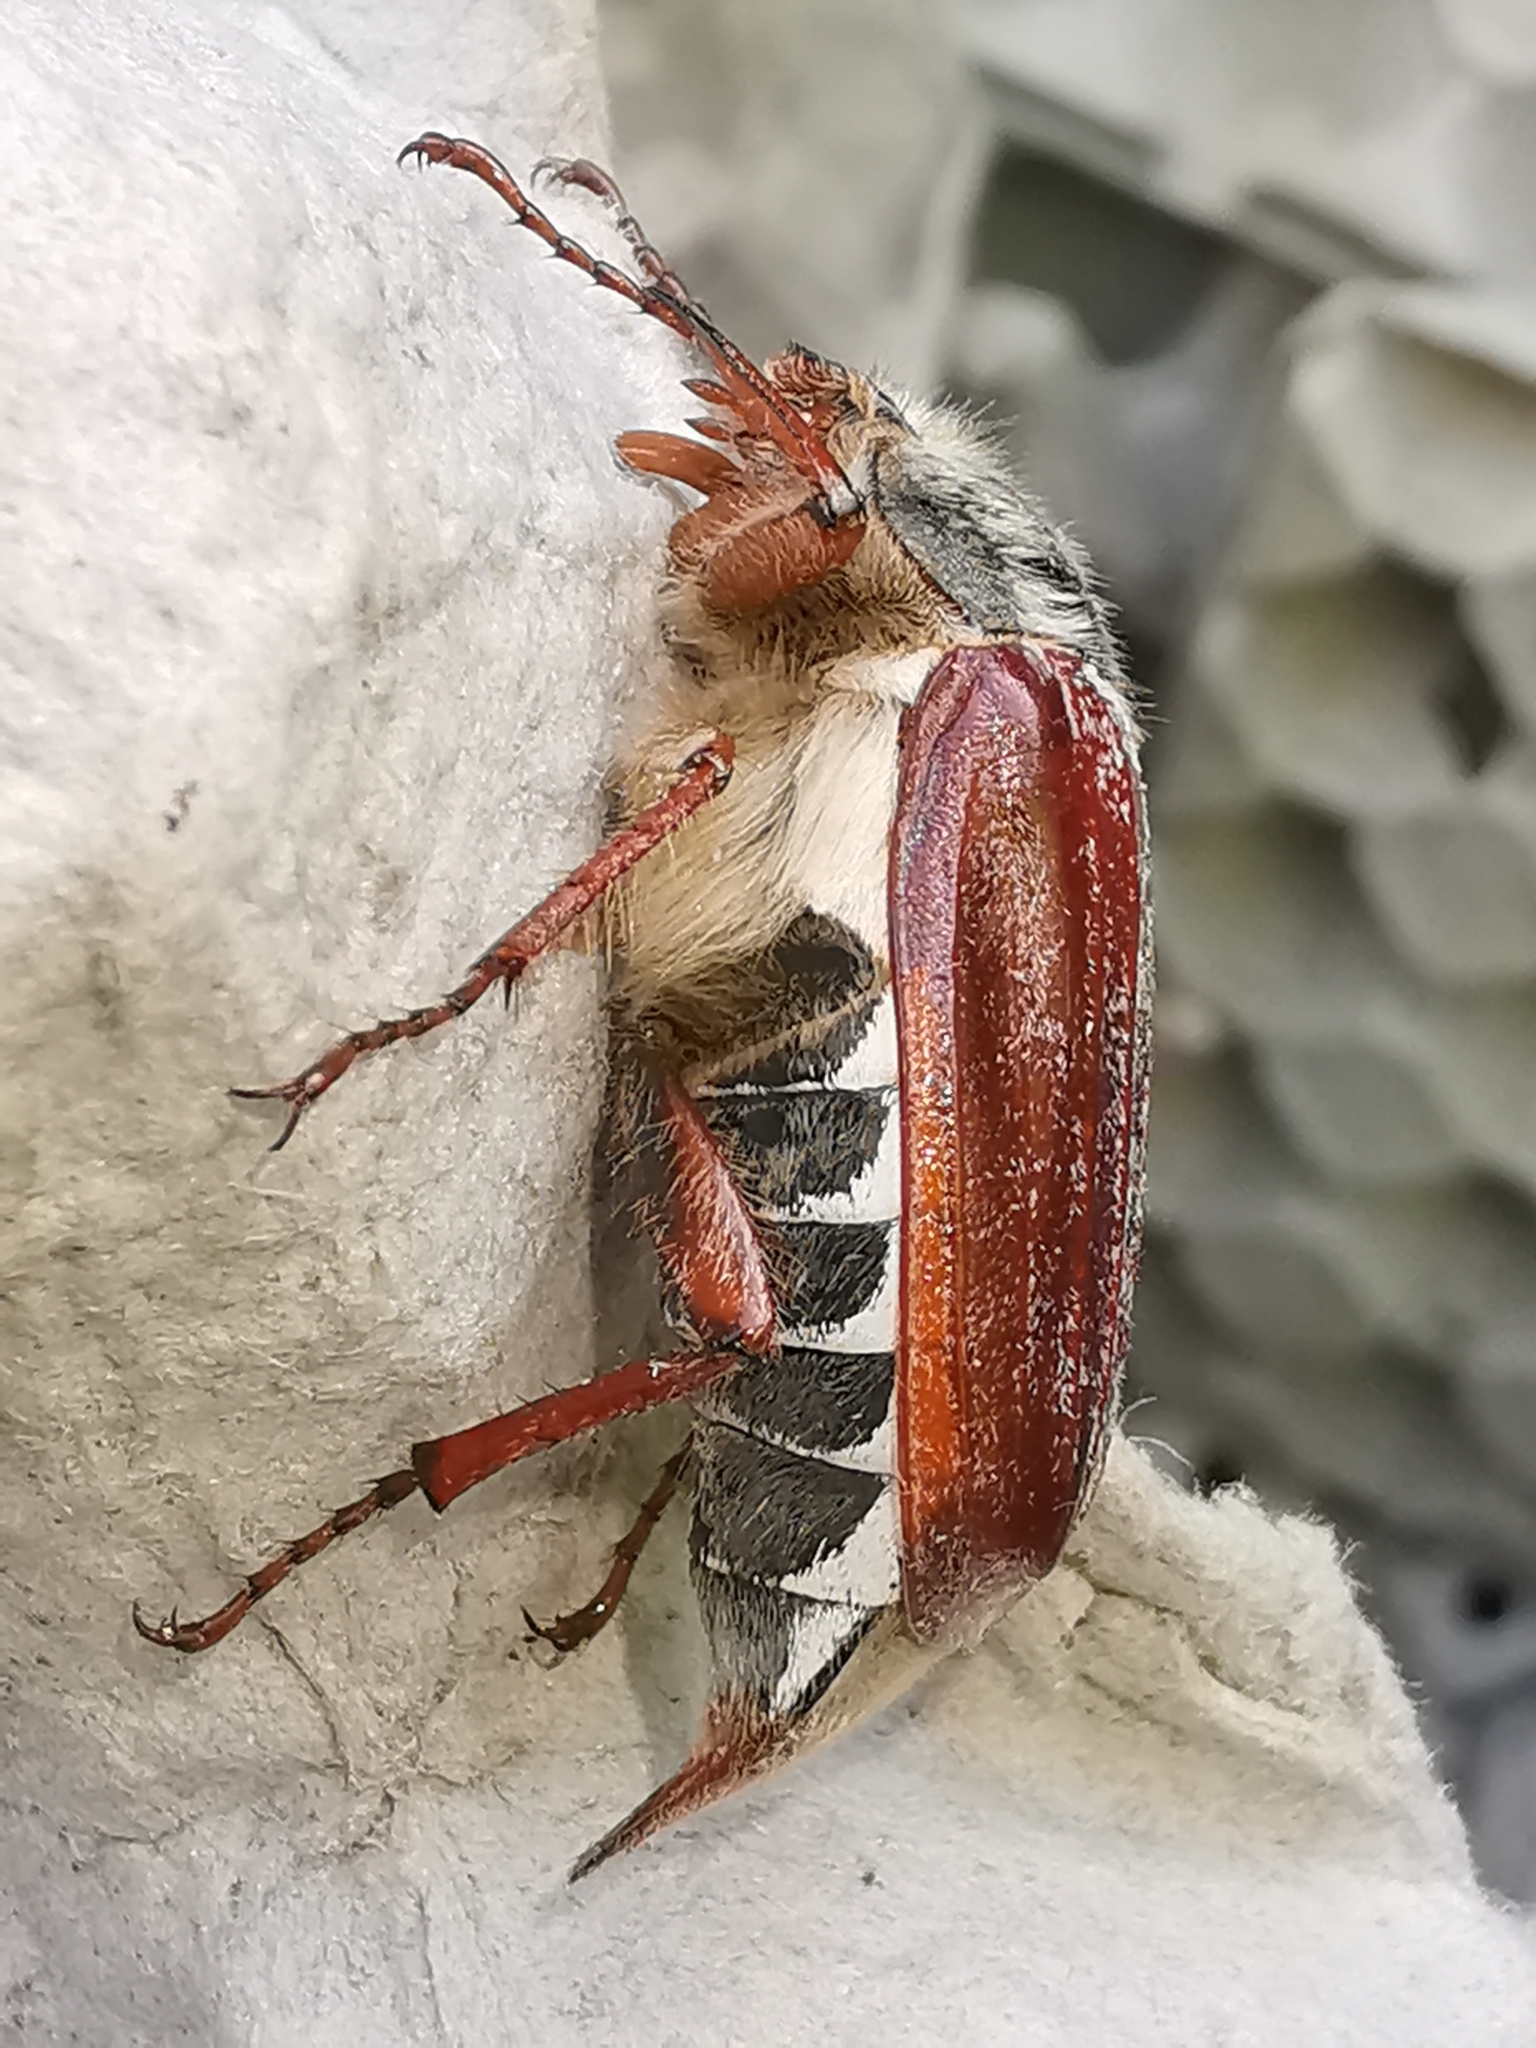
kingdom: Animalia
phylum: Arthropoda
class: Insecta
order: Coleoptera
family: Scarabaeidae
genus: Melolontha
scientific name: Melolontha melolontha
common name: Cockchafer maybeetle
